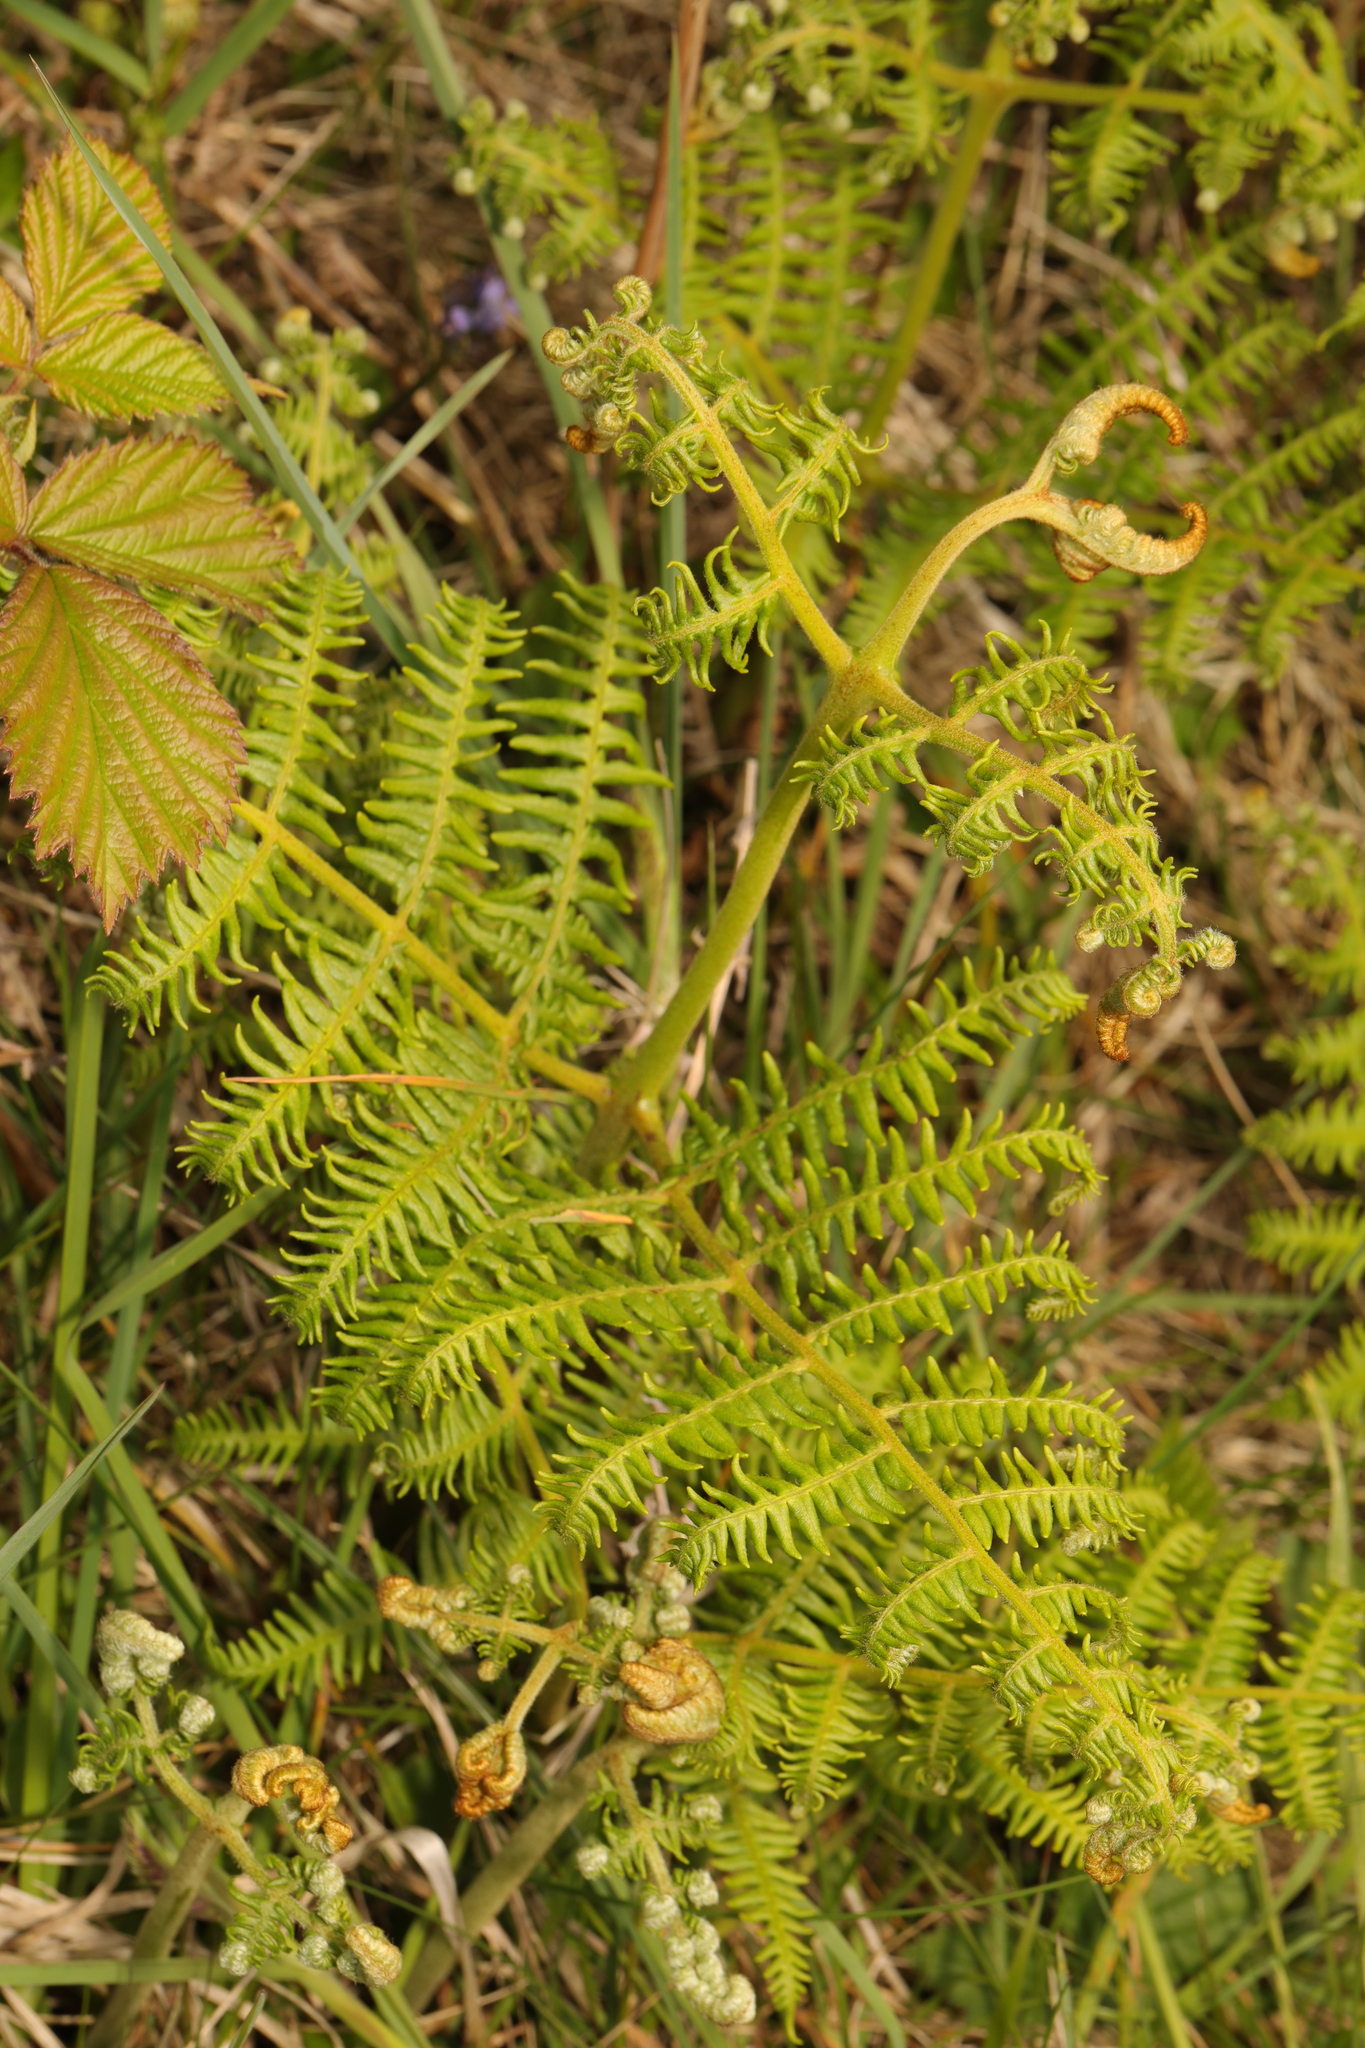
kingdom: Plantae
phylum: Tracheophyta
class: Polypodiopsida
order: Polypodiales
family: Dennstaedtiaceae
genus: Pteridium
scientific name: Pteridium aquilinum
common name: Bracken
